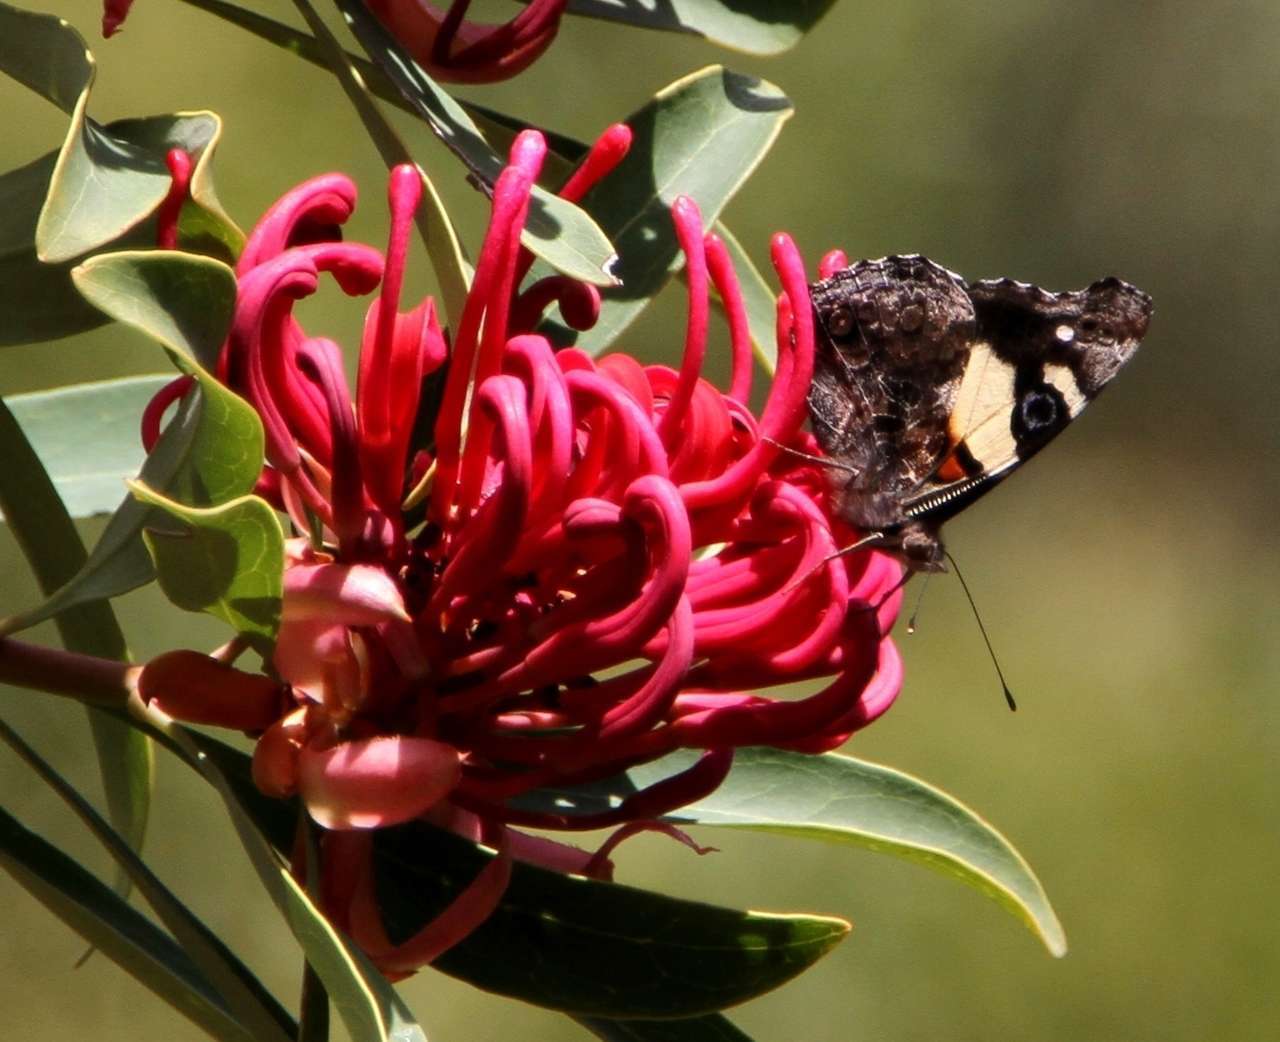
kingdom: Animalia
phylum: Arthropoda
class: Insecta
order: Lepidoptera
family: Nymphalidae
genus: Vanessa
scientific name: Vanessa itea
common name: Yellow admiral
